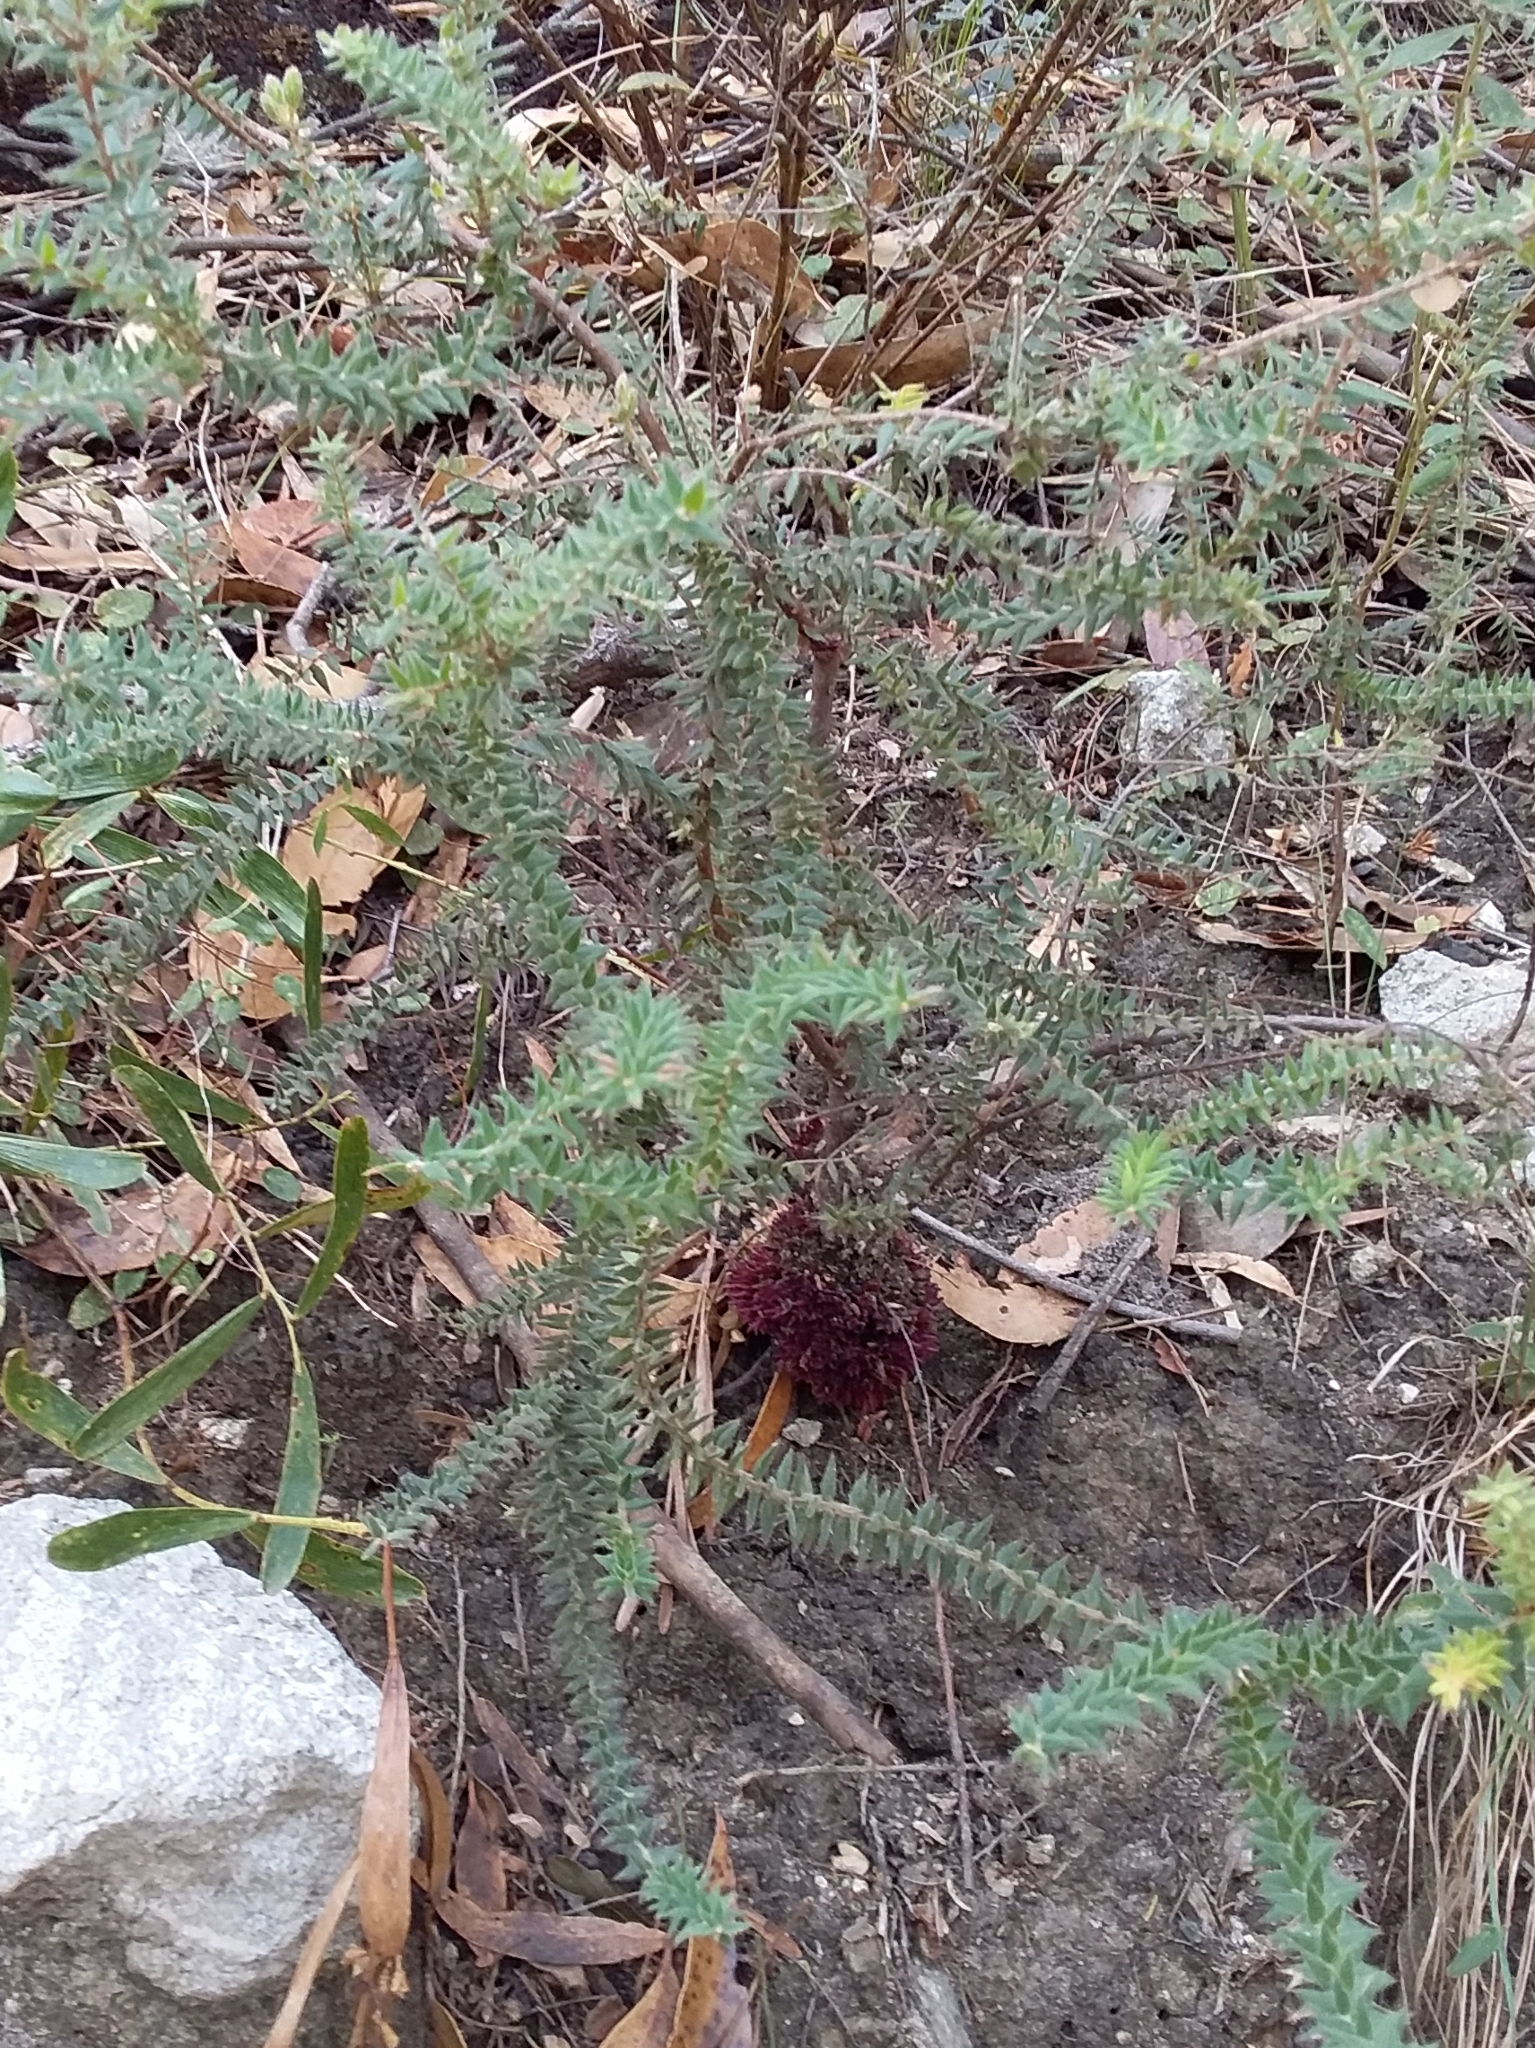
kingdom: Plantae
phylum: Tracheophyta
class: Magnoliopsida
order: Ericales
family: Ericaceae
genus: Acrotriche
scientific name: Acrotriche fasciculiflora
